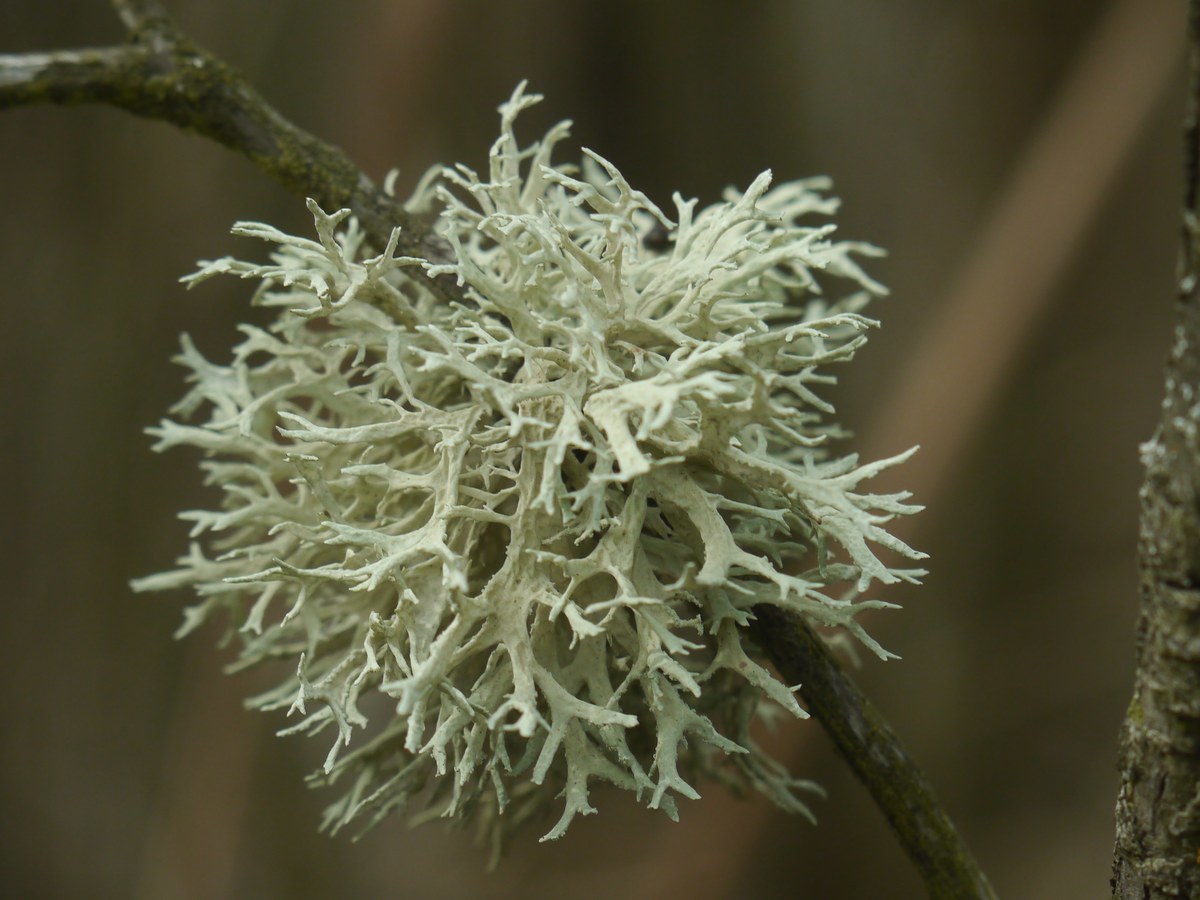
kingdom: Fungi
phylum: Ascomycota
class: Lecanoromycetes
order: Lecanorales
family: Parmeliaceae
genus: Evernia
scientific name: Evernia prunastri
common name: Oak moss
